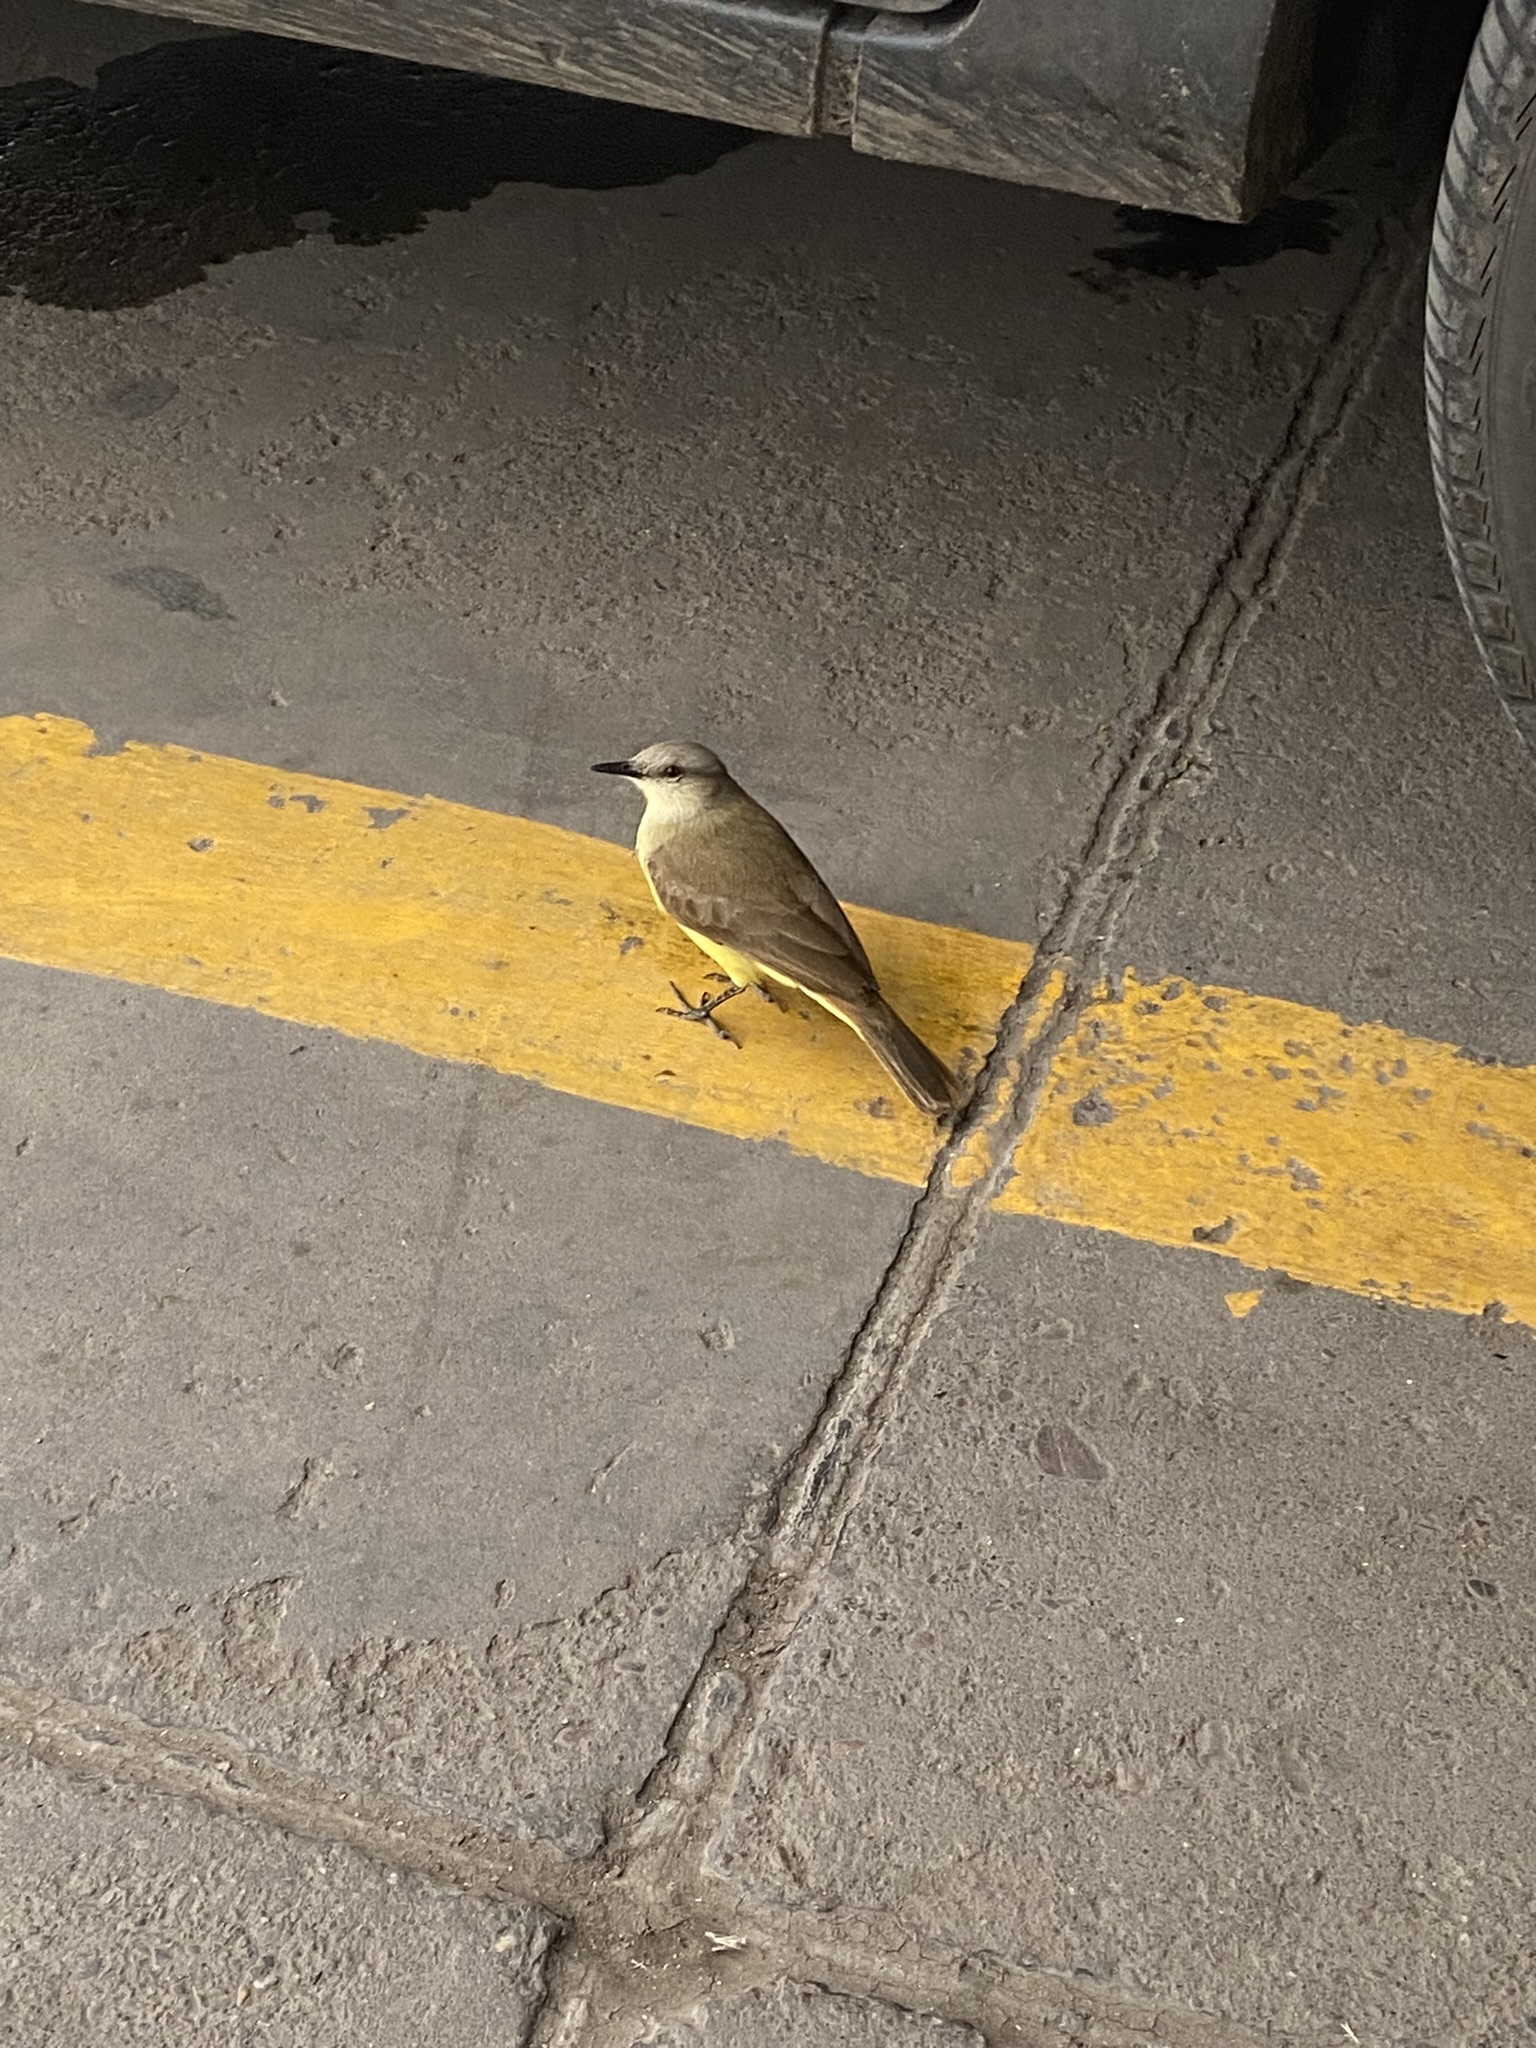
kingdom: Animalia
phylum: Chordata
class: Aves
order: Passeriformes
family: Tyrannidae
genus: Machetornis
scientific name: Machetornis rixosa
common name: Cattle tyrant
